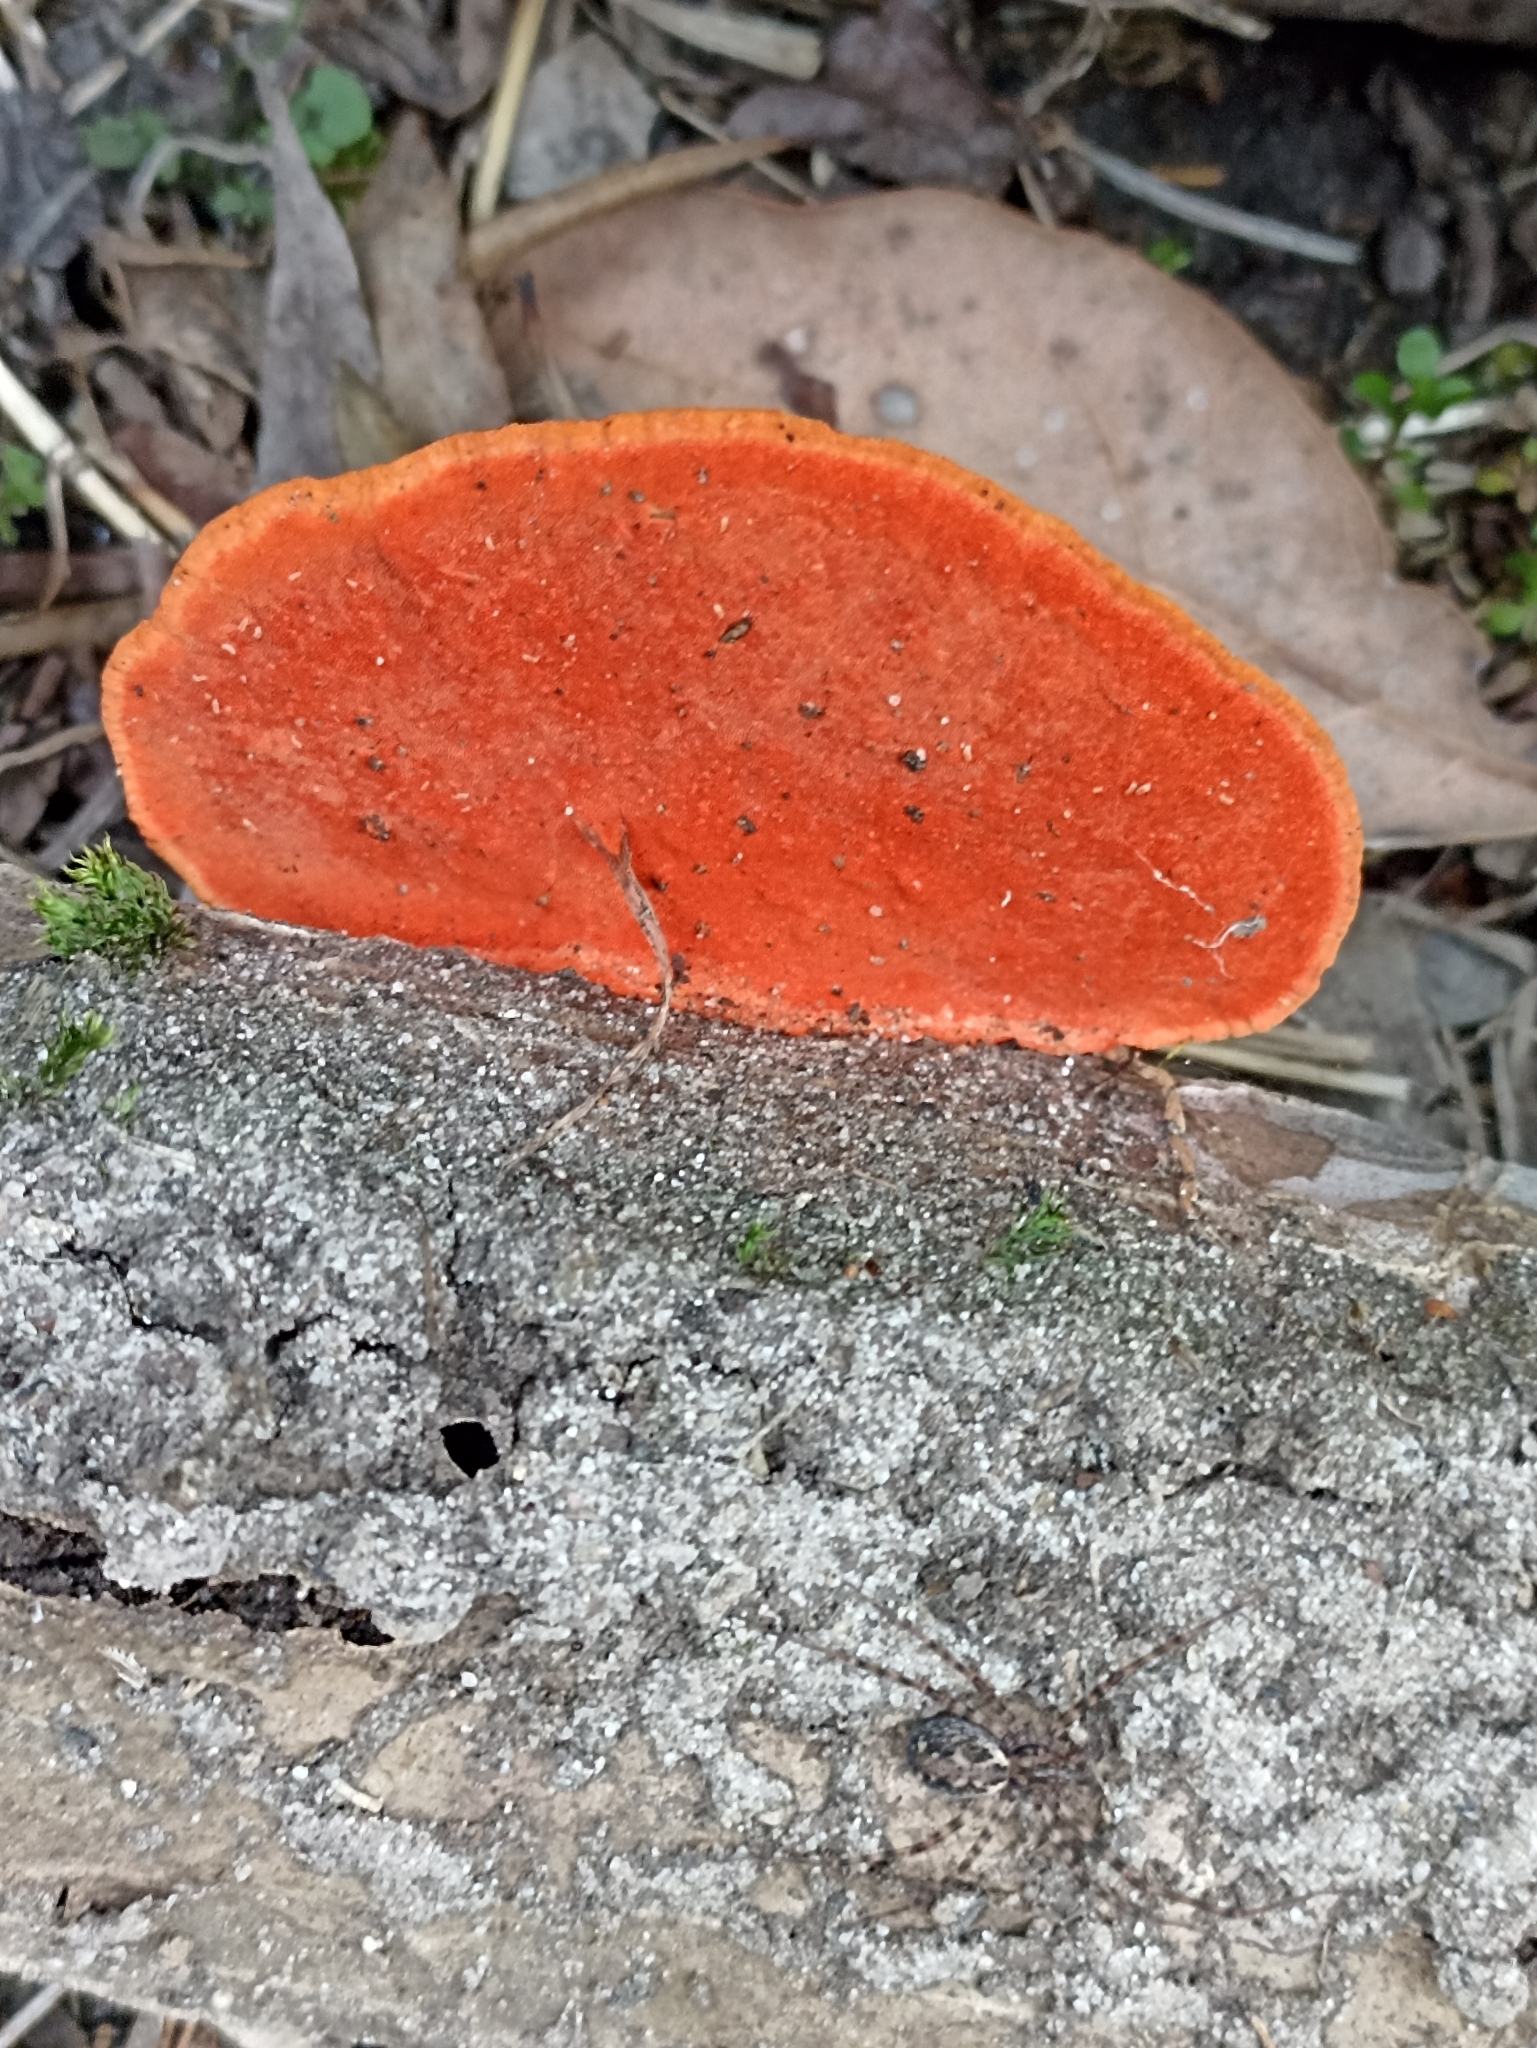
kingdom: Fungi
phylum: Basidiomycota
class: Agaricomycetes
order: Polyporales
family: Polyporaceae
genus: Trametes
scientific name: Trametes coccinea
